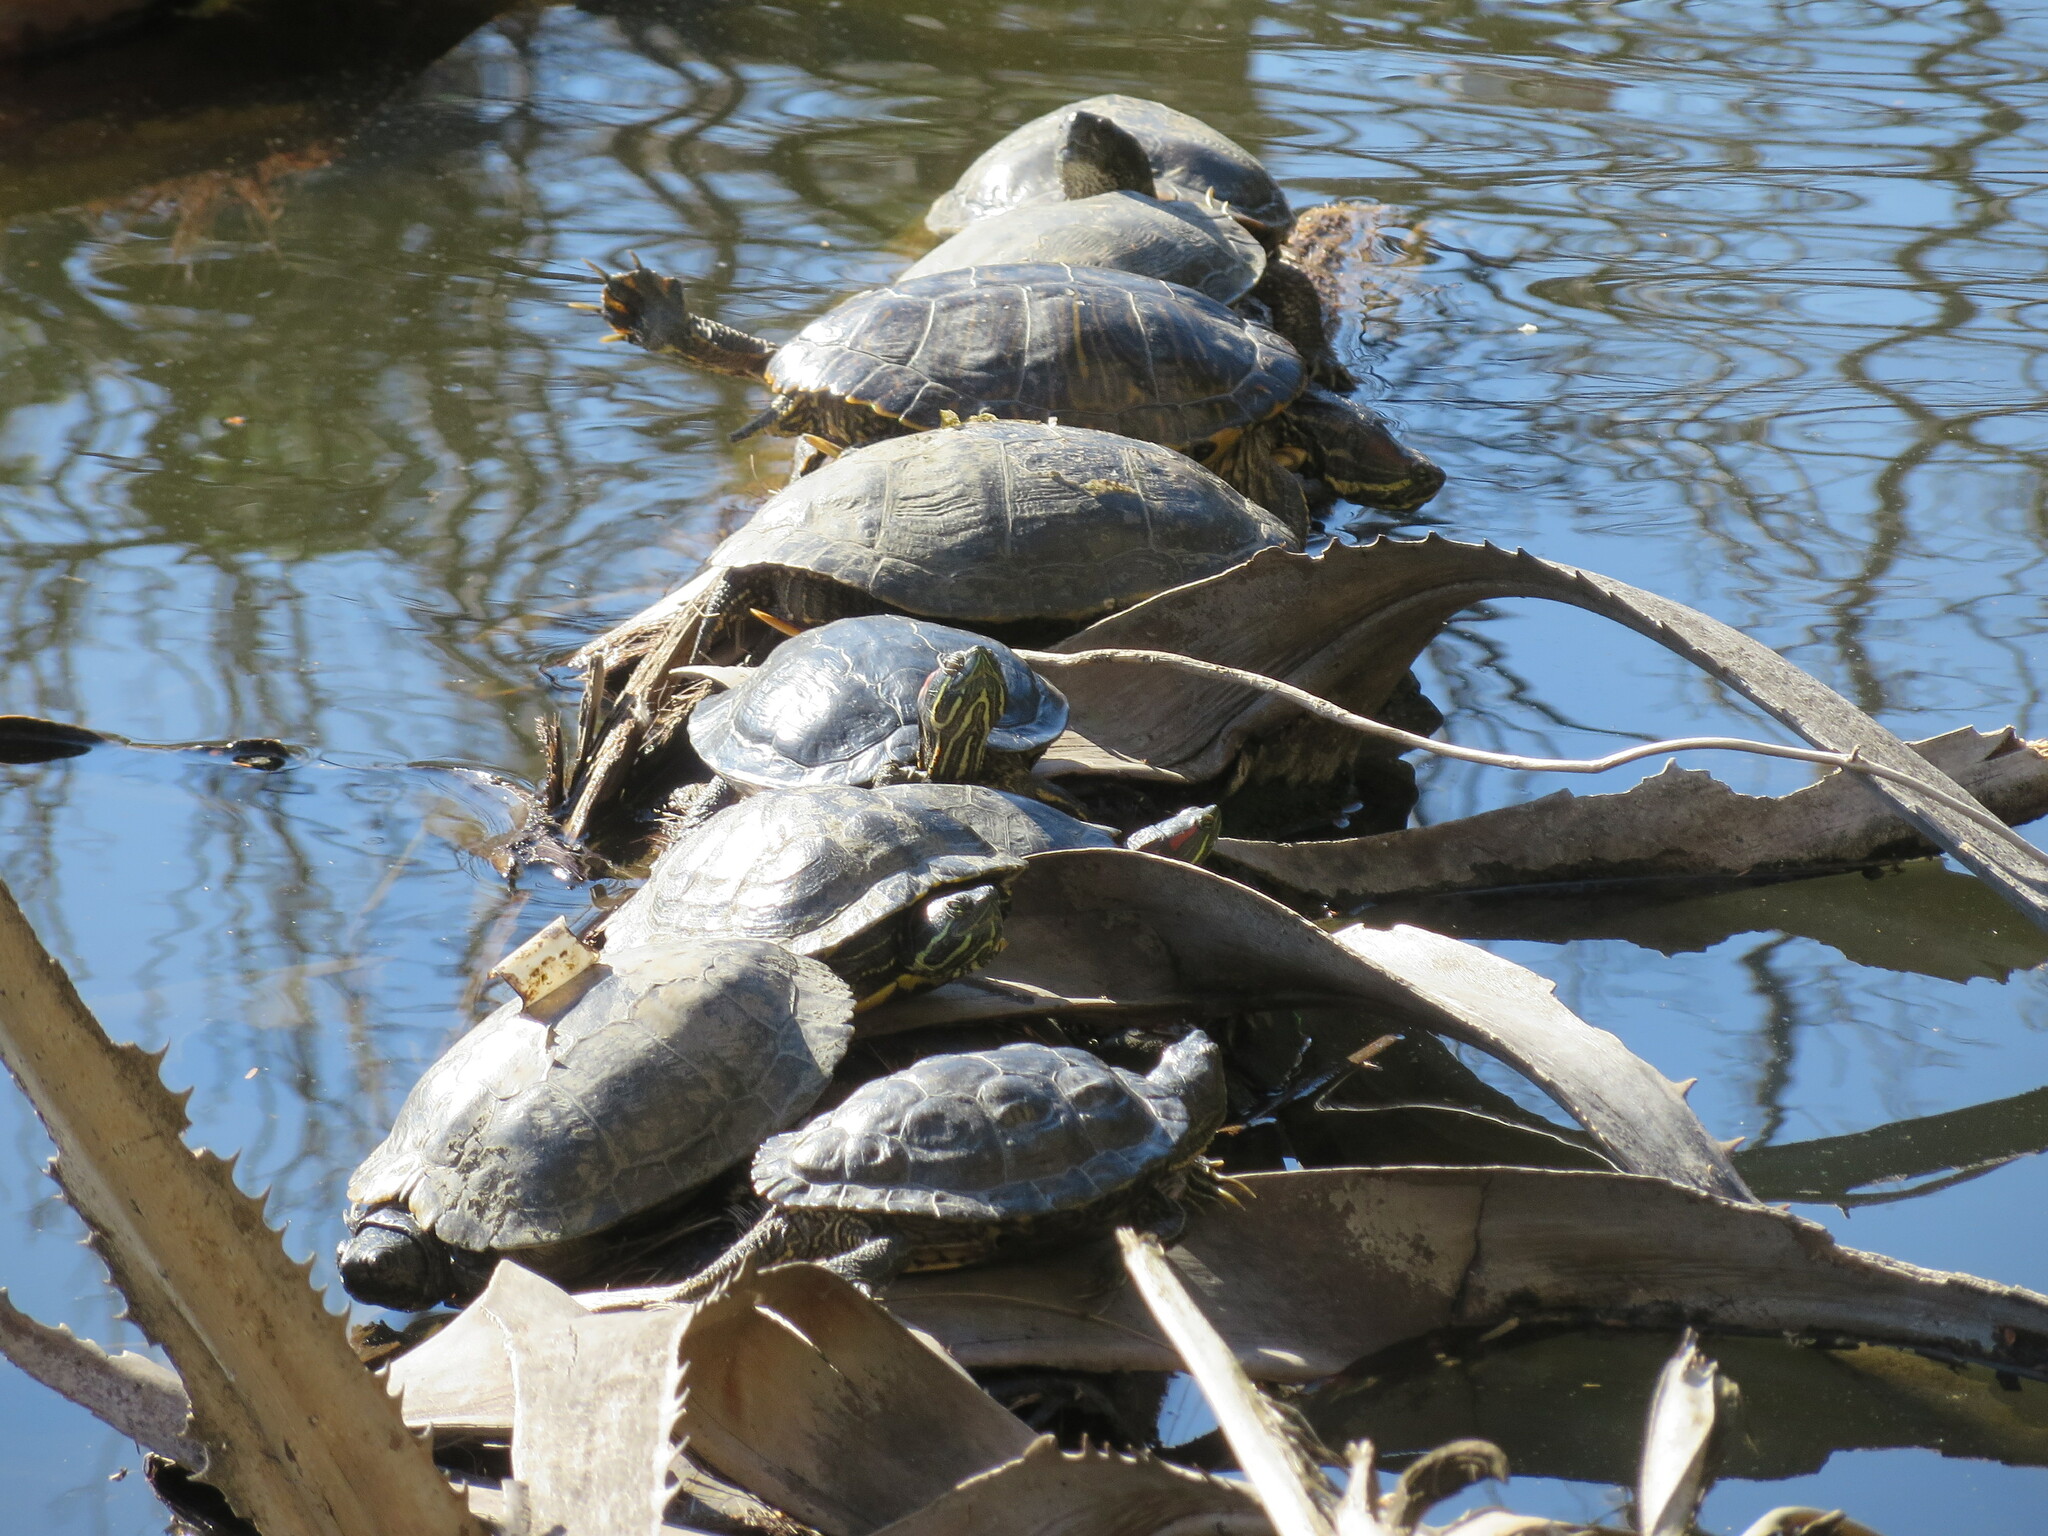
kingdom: Animalia
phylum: Chordata
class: Testudines
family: Emydidae
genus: Trachemys
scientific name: Trachemys scripta
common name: Slider
